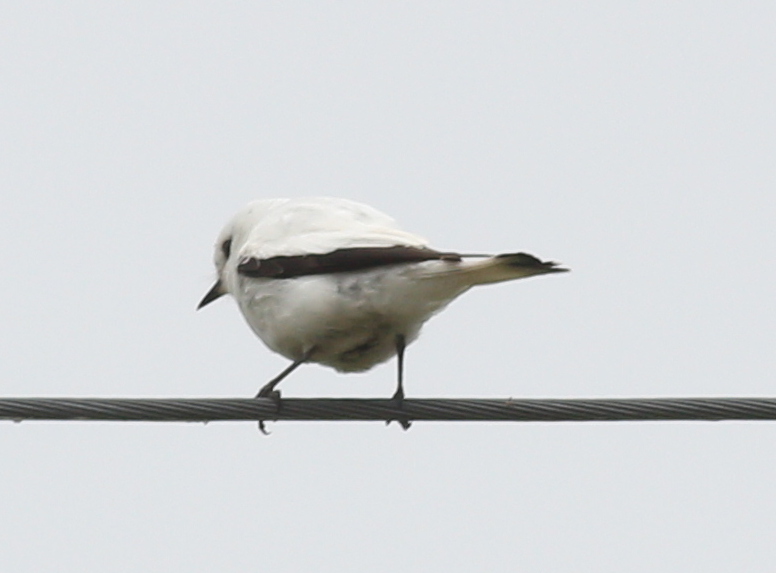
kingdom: Animalia
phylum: Chordata
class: Aves
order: Passeriformes
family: Tyrannidae
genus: Xolmis
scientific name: Xolmis irupero
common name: White monjita
